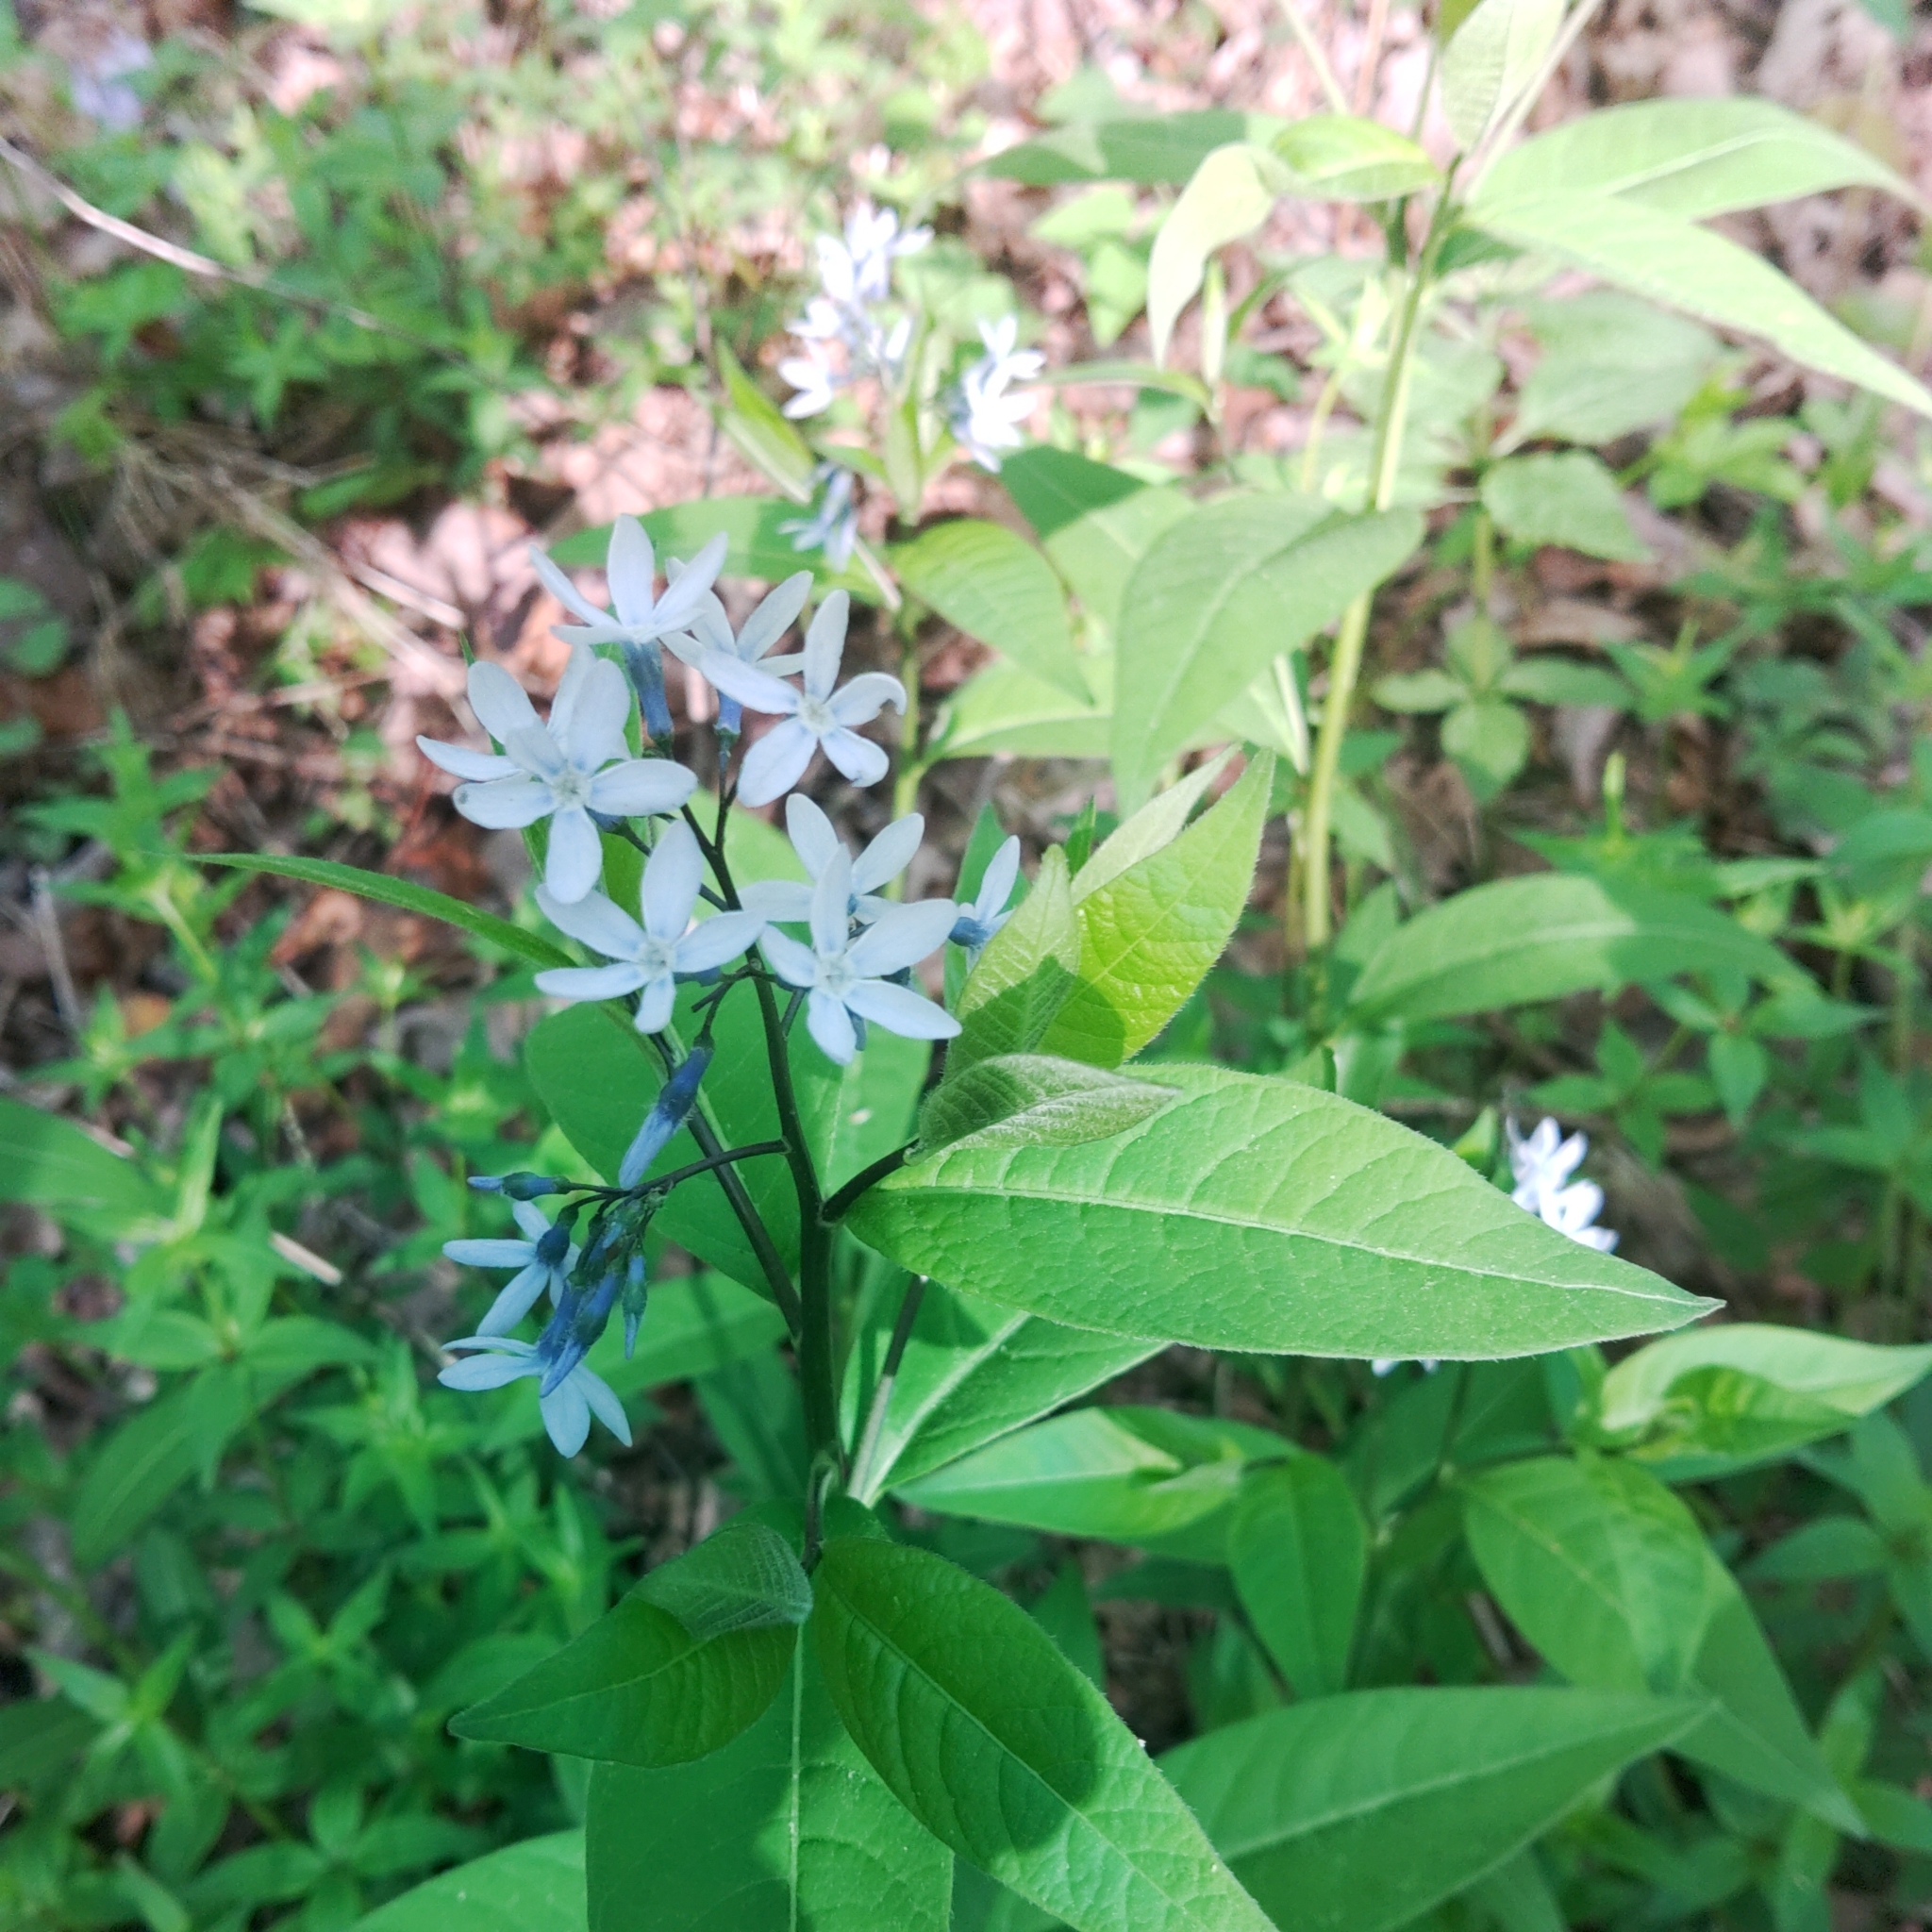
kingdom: Plantae
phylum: Tracheophyta
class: Magnoliopsida
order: Gentianales
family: Apocynaceae
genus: Amsonia
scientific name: Amsonia tabernaemontana
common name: Texas-star
